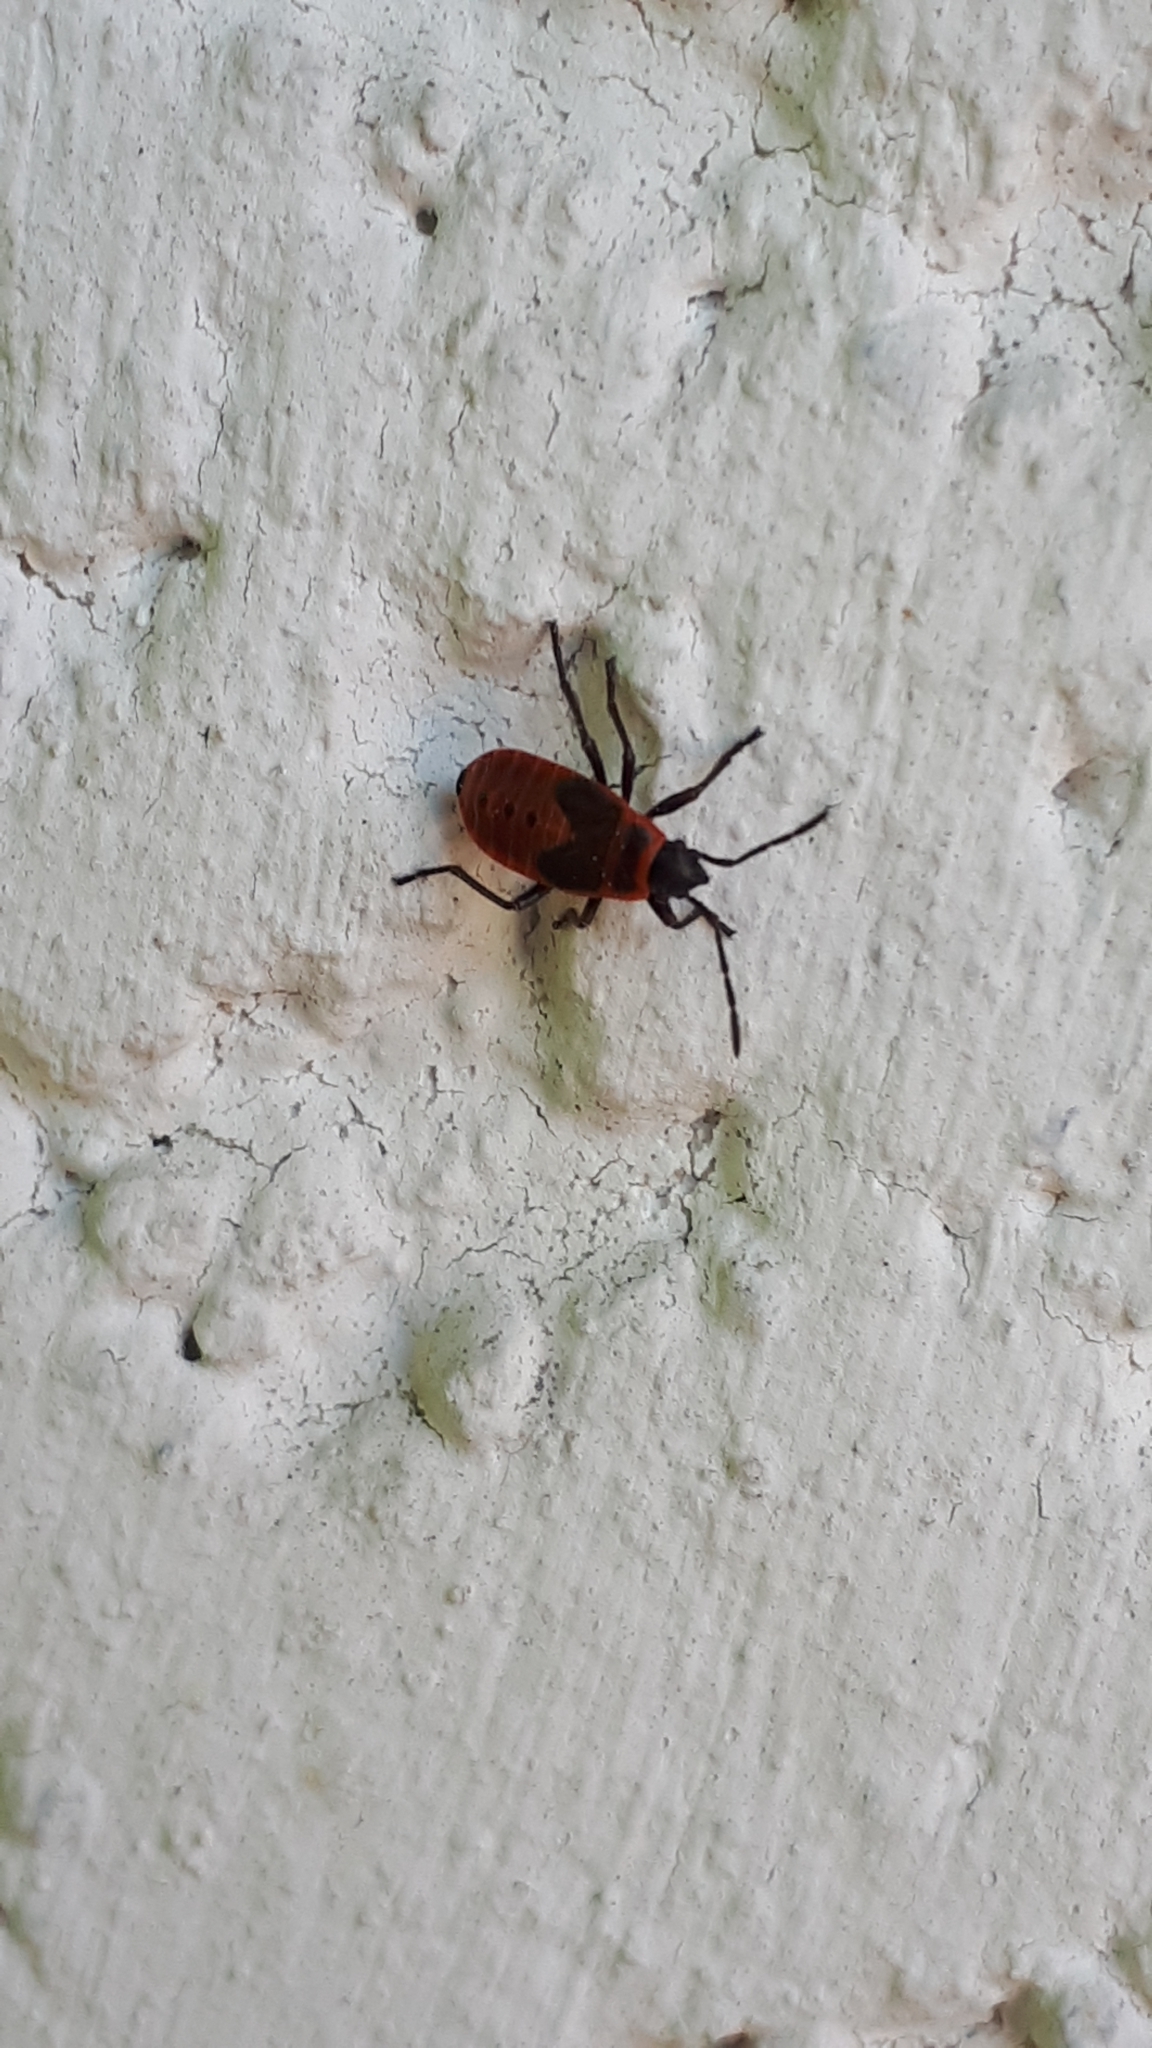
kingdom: Animalia
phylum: Arthropoda
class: Insecta
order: Hemiptera
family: Pyrrhocoridae
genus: Pyrrhocoris
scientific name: Pyrrhocoris apterus
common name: Firebug
